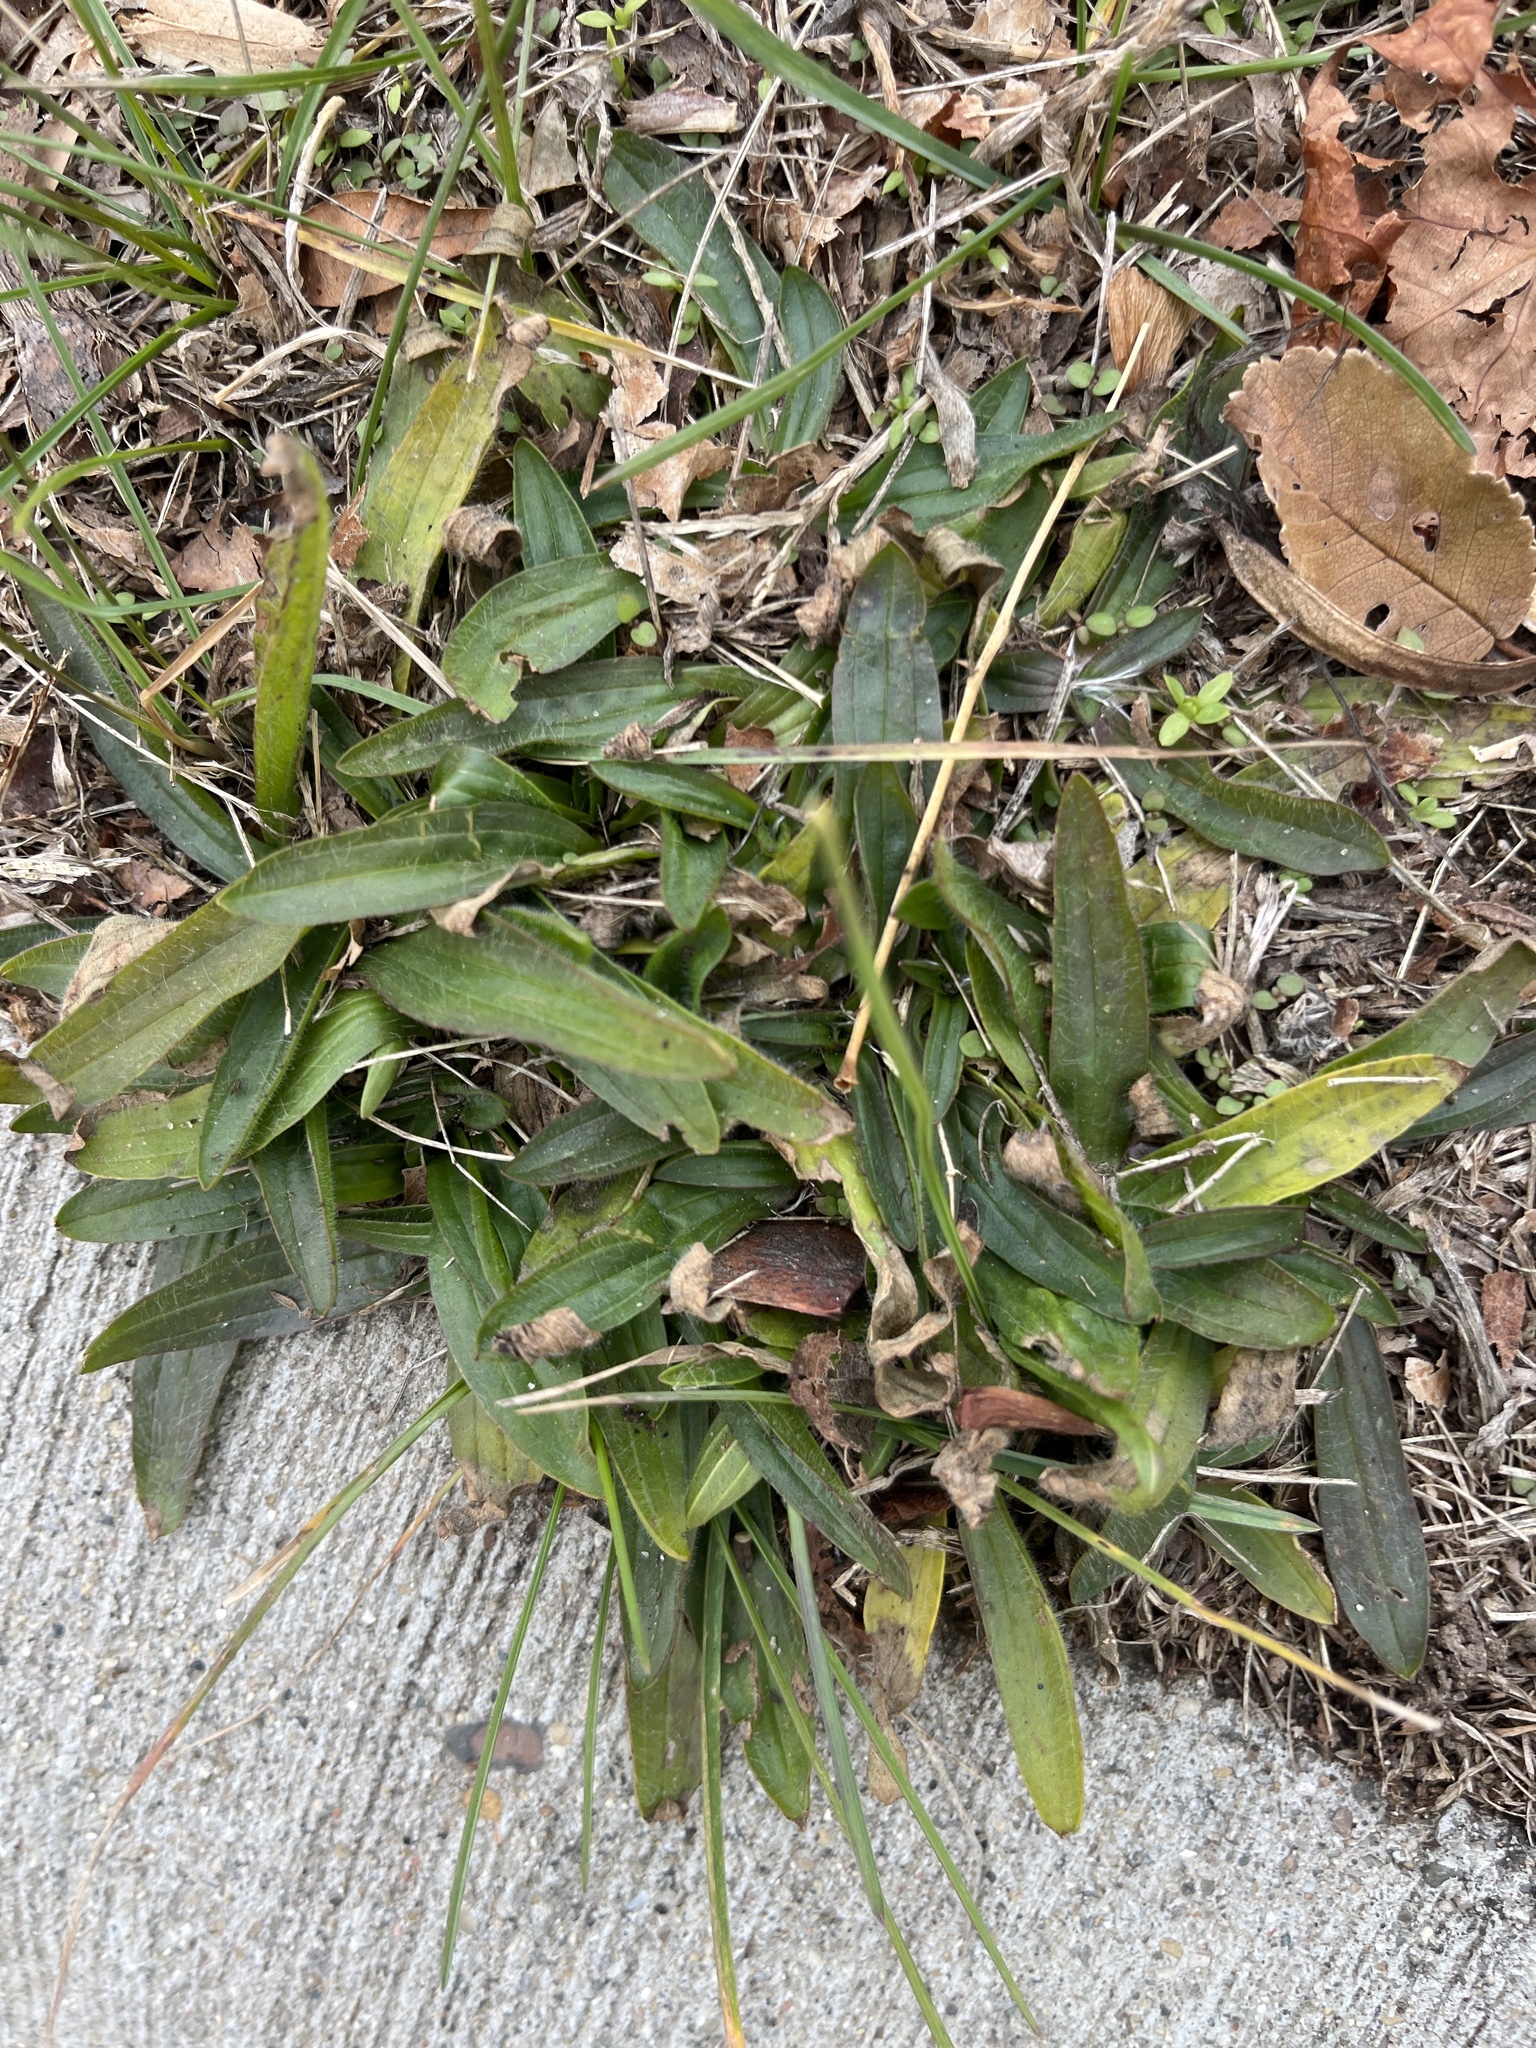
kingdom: Plantae
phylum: Tracheophyta
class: Magnoliopsida
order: Lamiales
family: Plantaginaceae
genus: Plantago
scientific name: Plantago lanceolata
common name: Ribwort plantain
